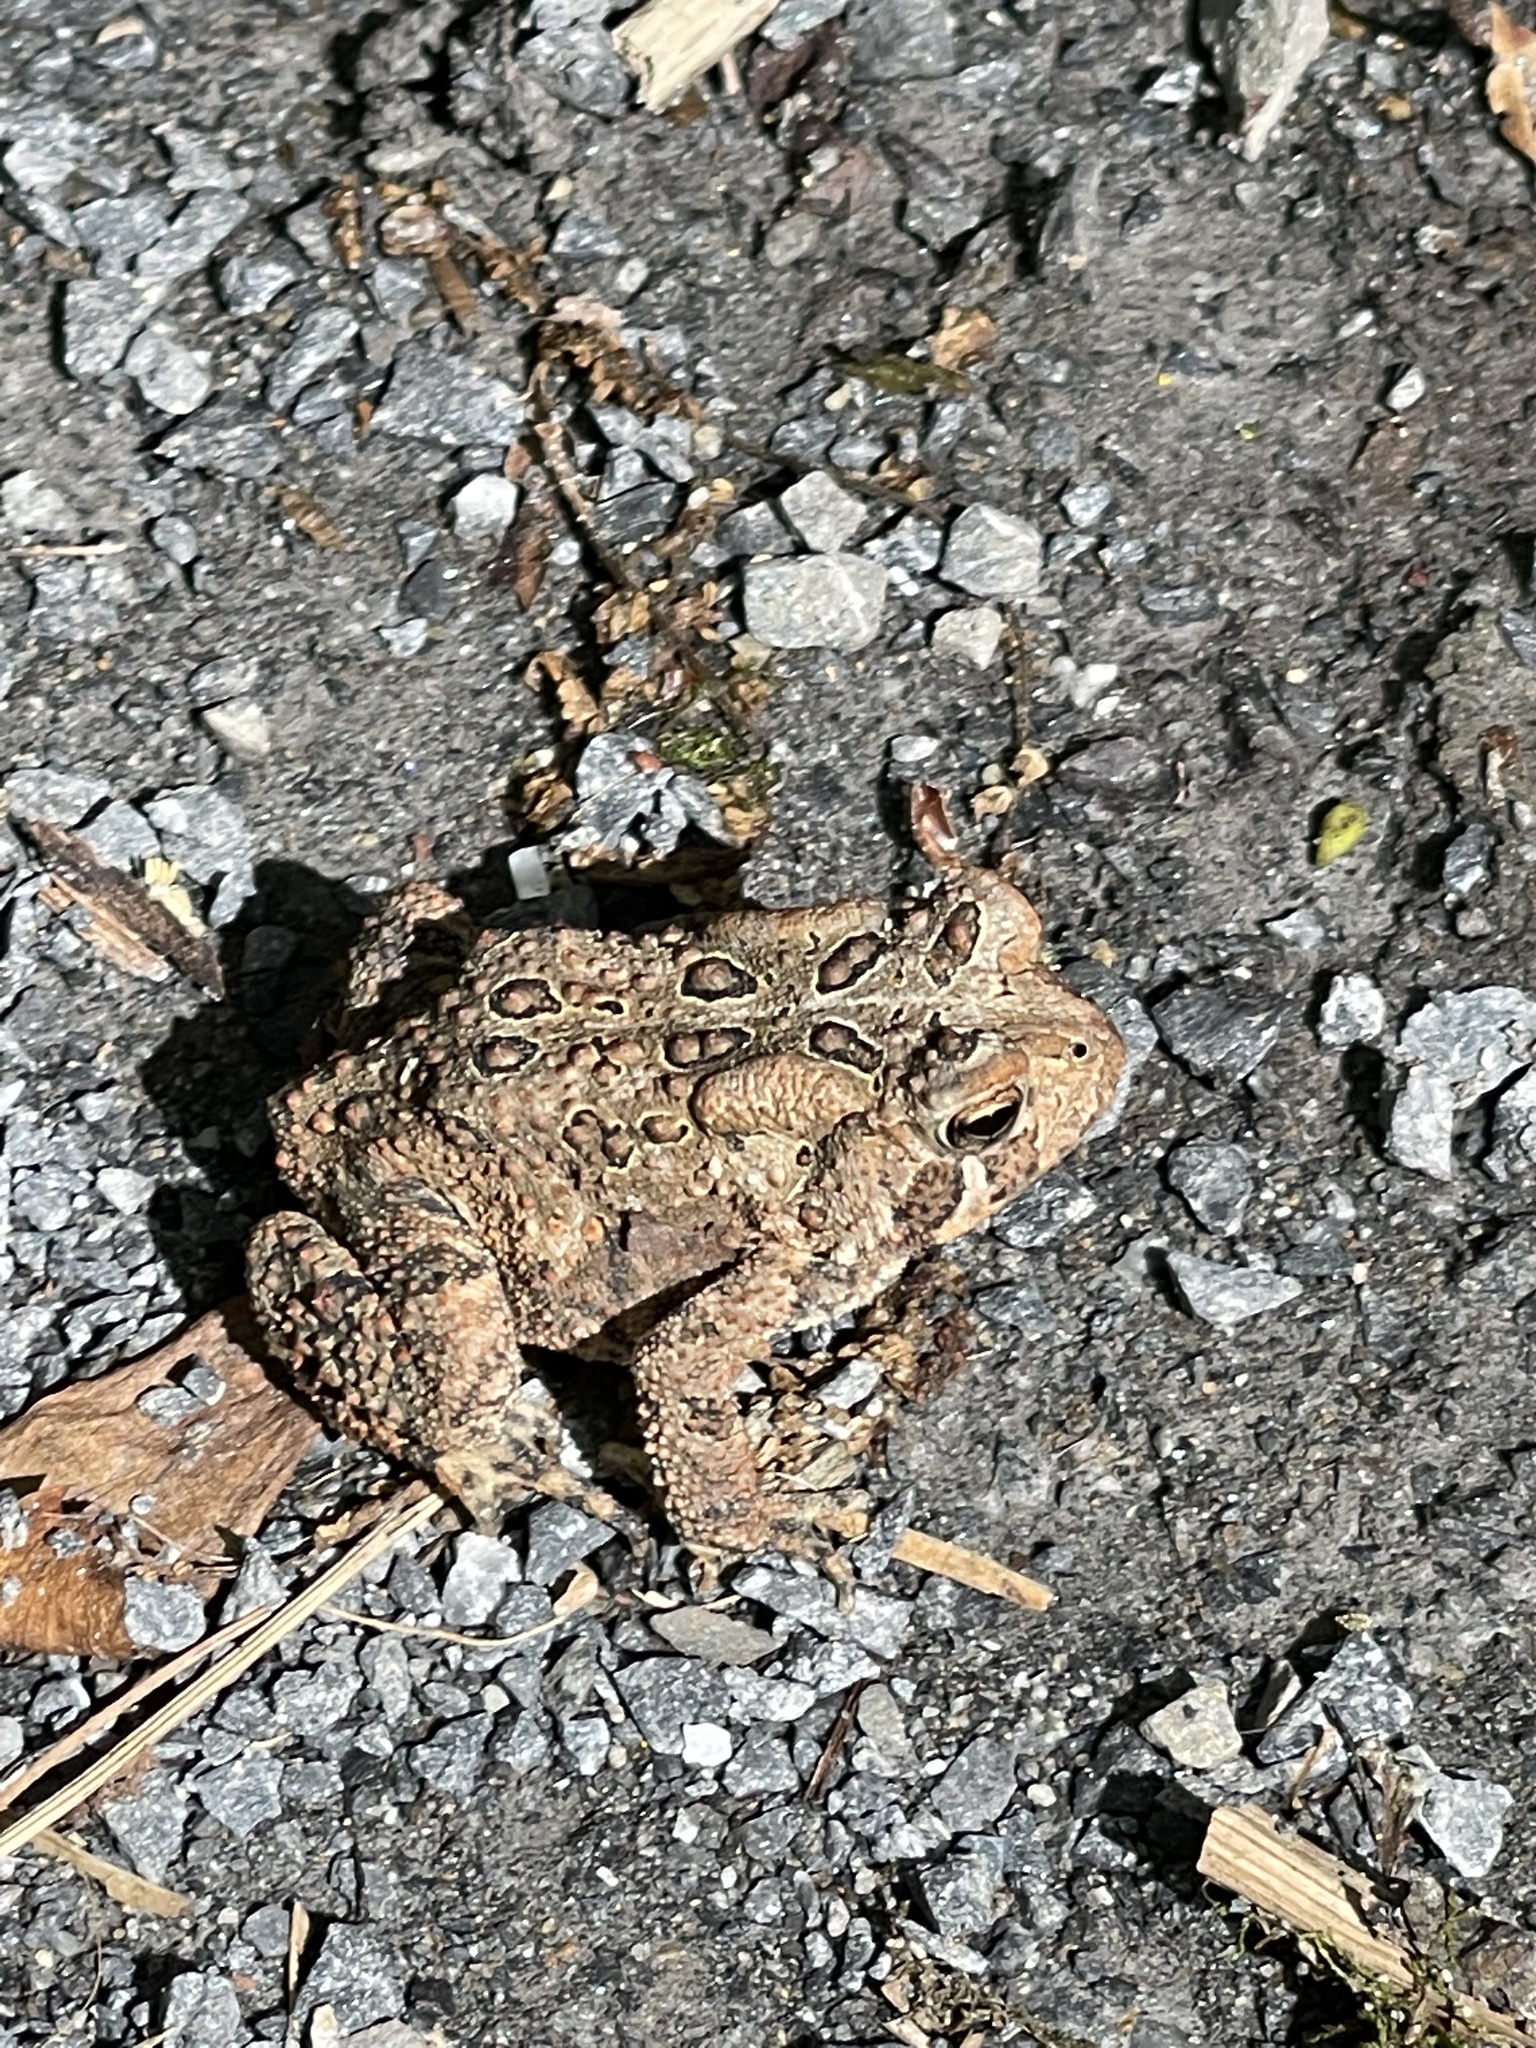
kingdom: Animalia
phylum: Chordata
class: Amphibia
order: Anura
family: Bufonidae
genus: Anaxyrus
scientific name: Anaxyrus americanus
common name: American toad
